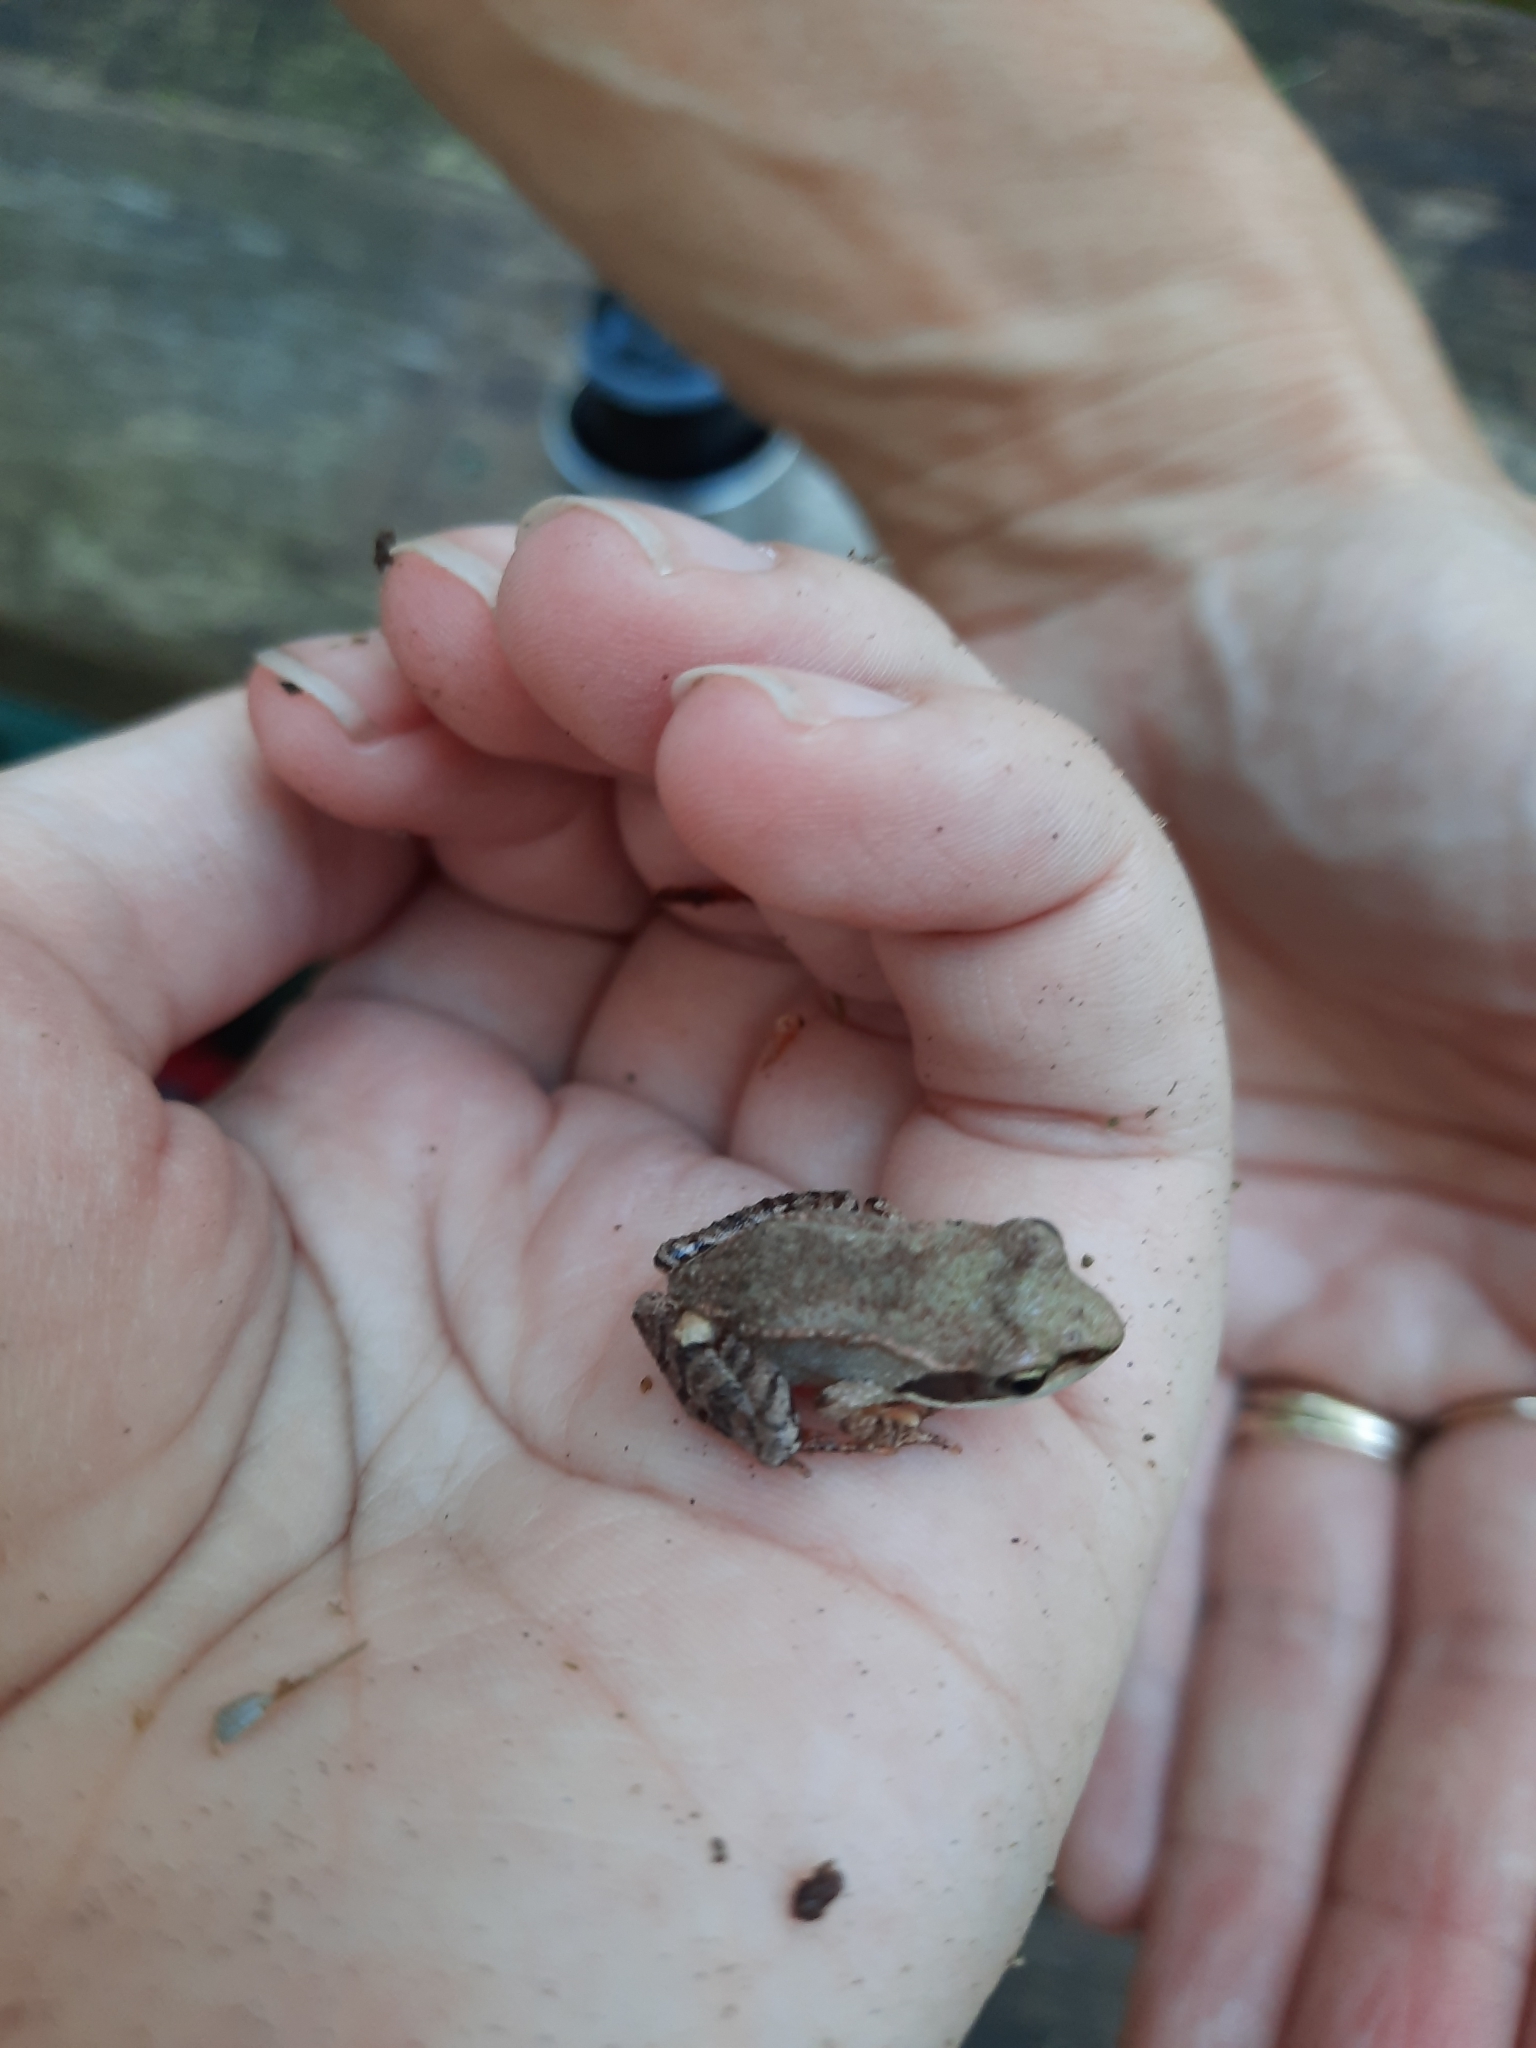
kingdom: Animalia
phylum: Chordata
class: Amphibia
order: Anura
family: Ranidae
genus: Lithobates
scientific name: Lithobates sylvaticus
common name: Wood frog
